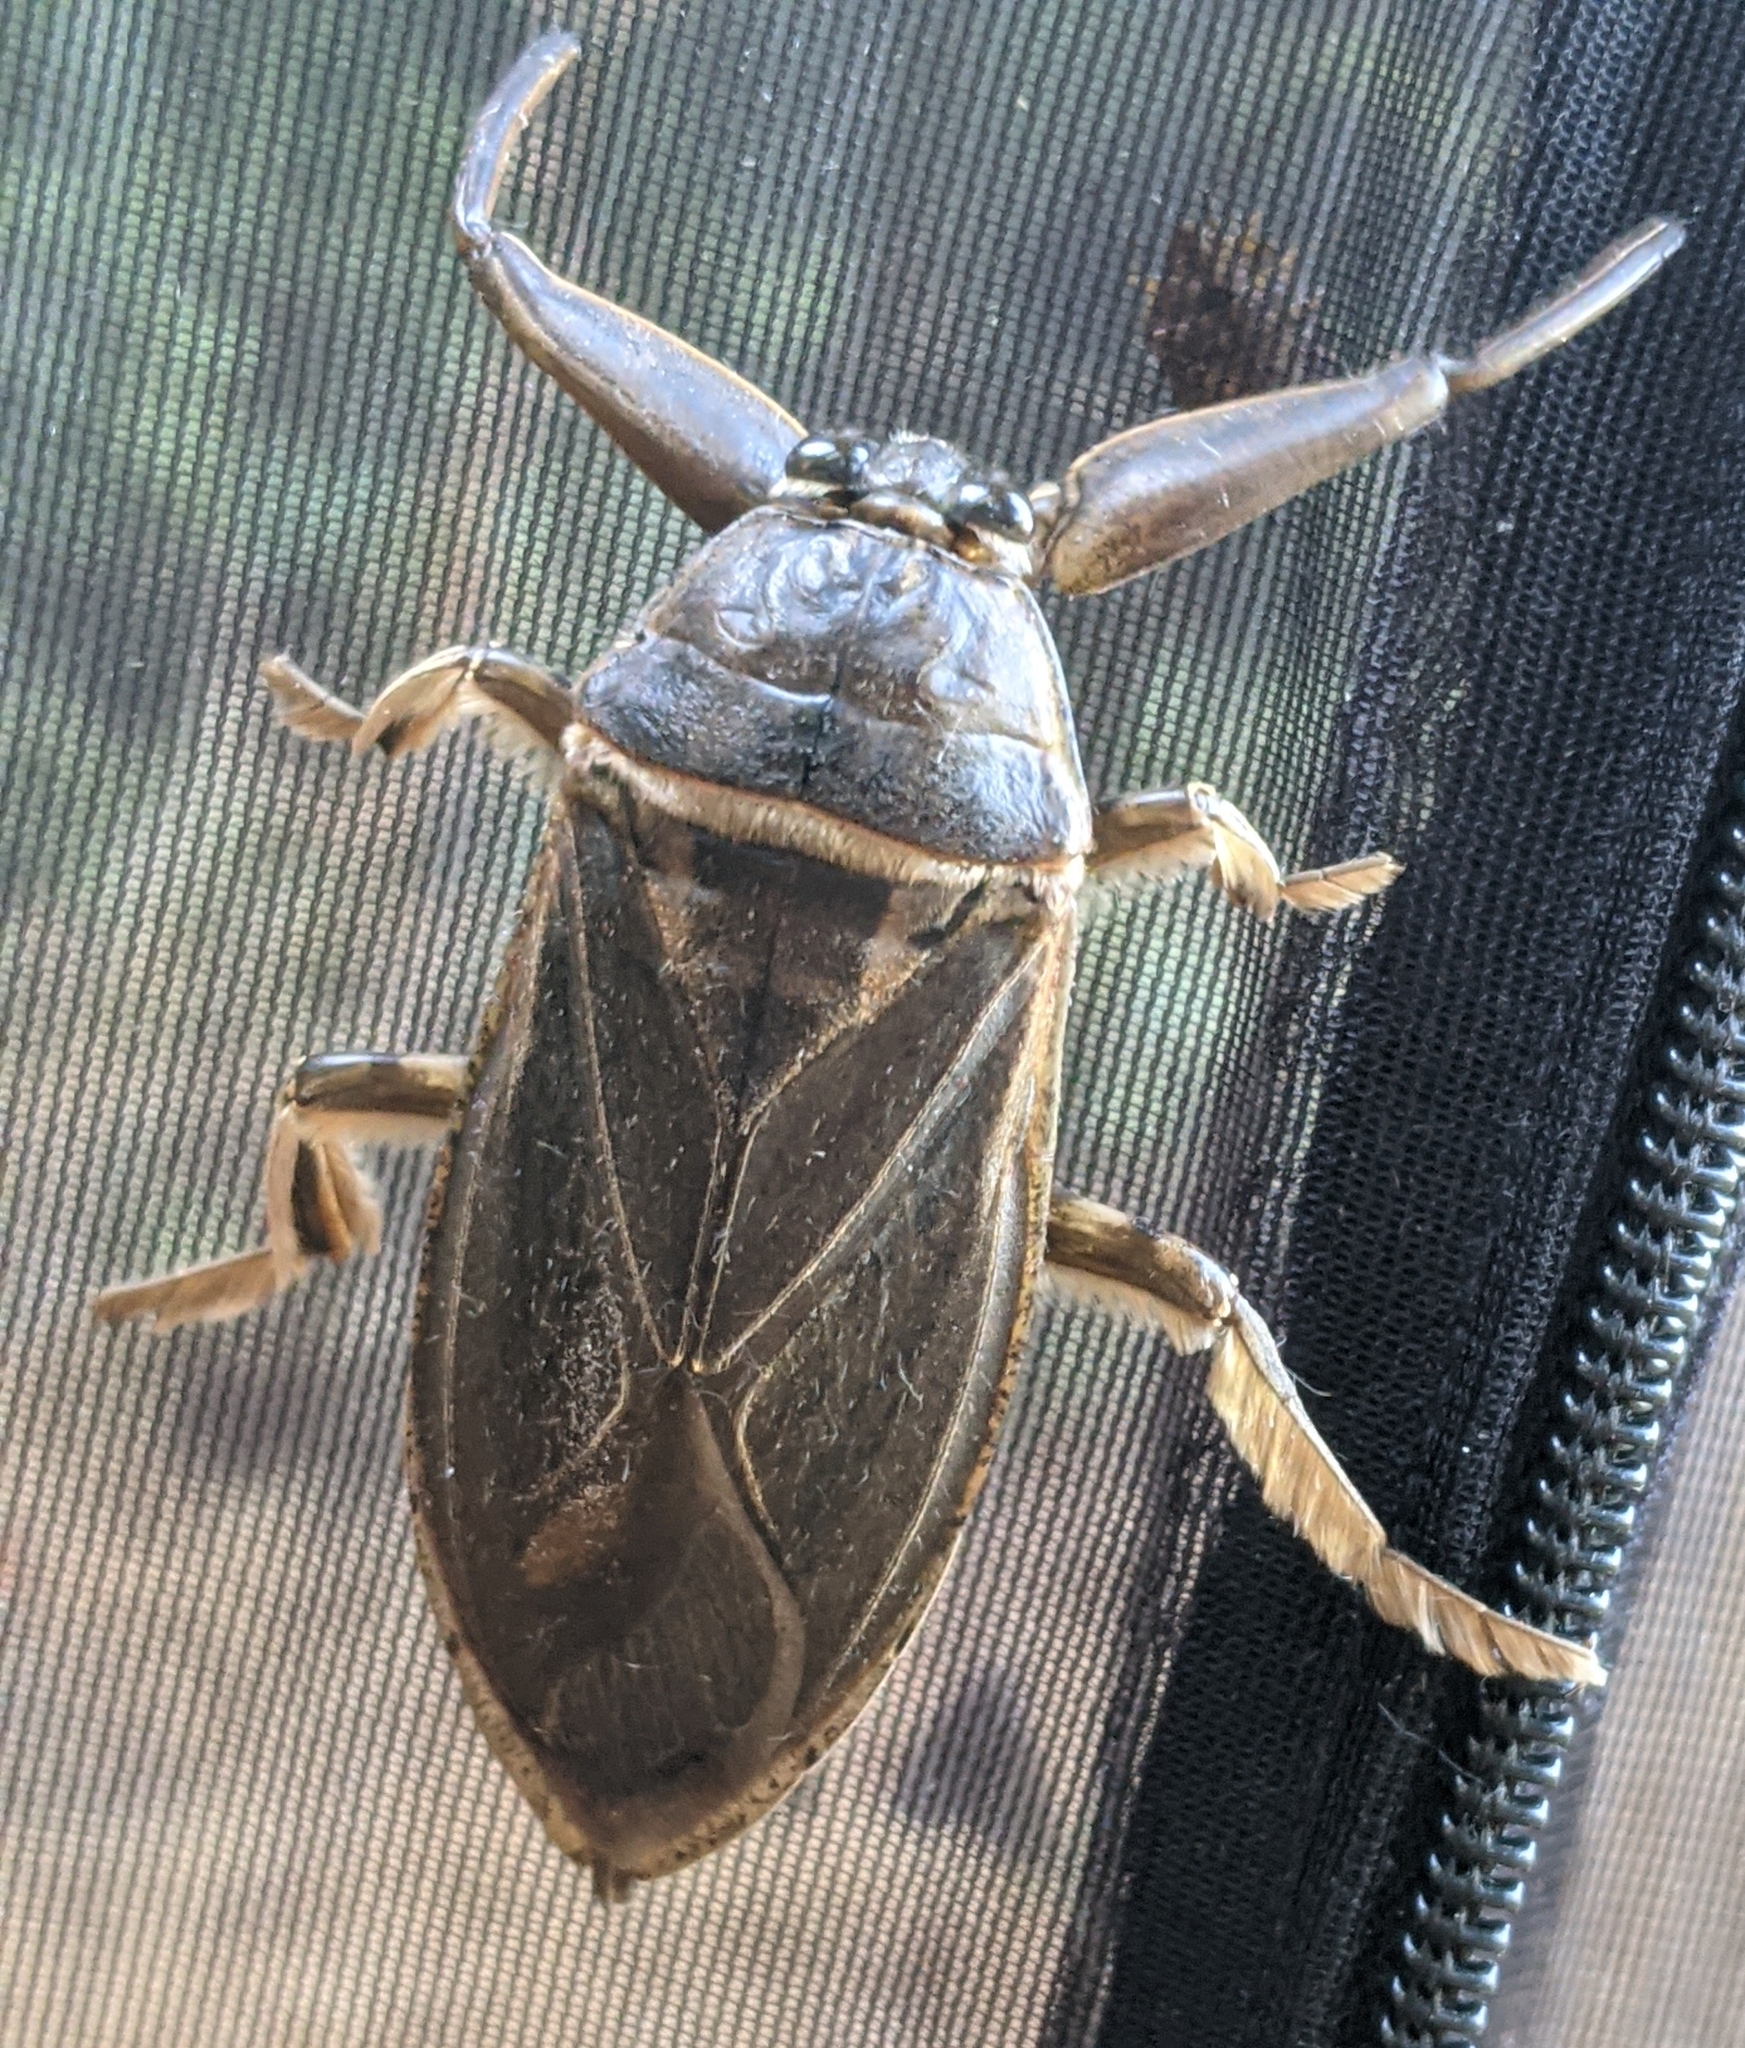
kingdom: Animalia
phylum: Arthropoda
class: Insecta
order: Hemiptera
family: Belostomatidae
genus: Lethocerus
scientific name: Lethocerus americanus
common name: Giant water bug
